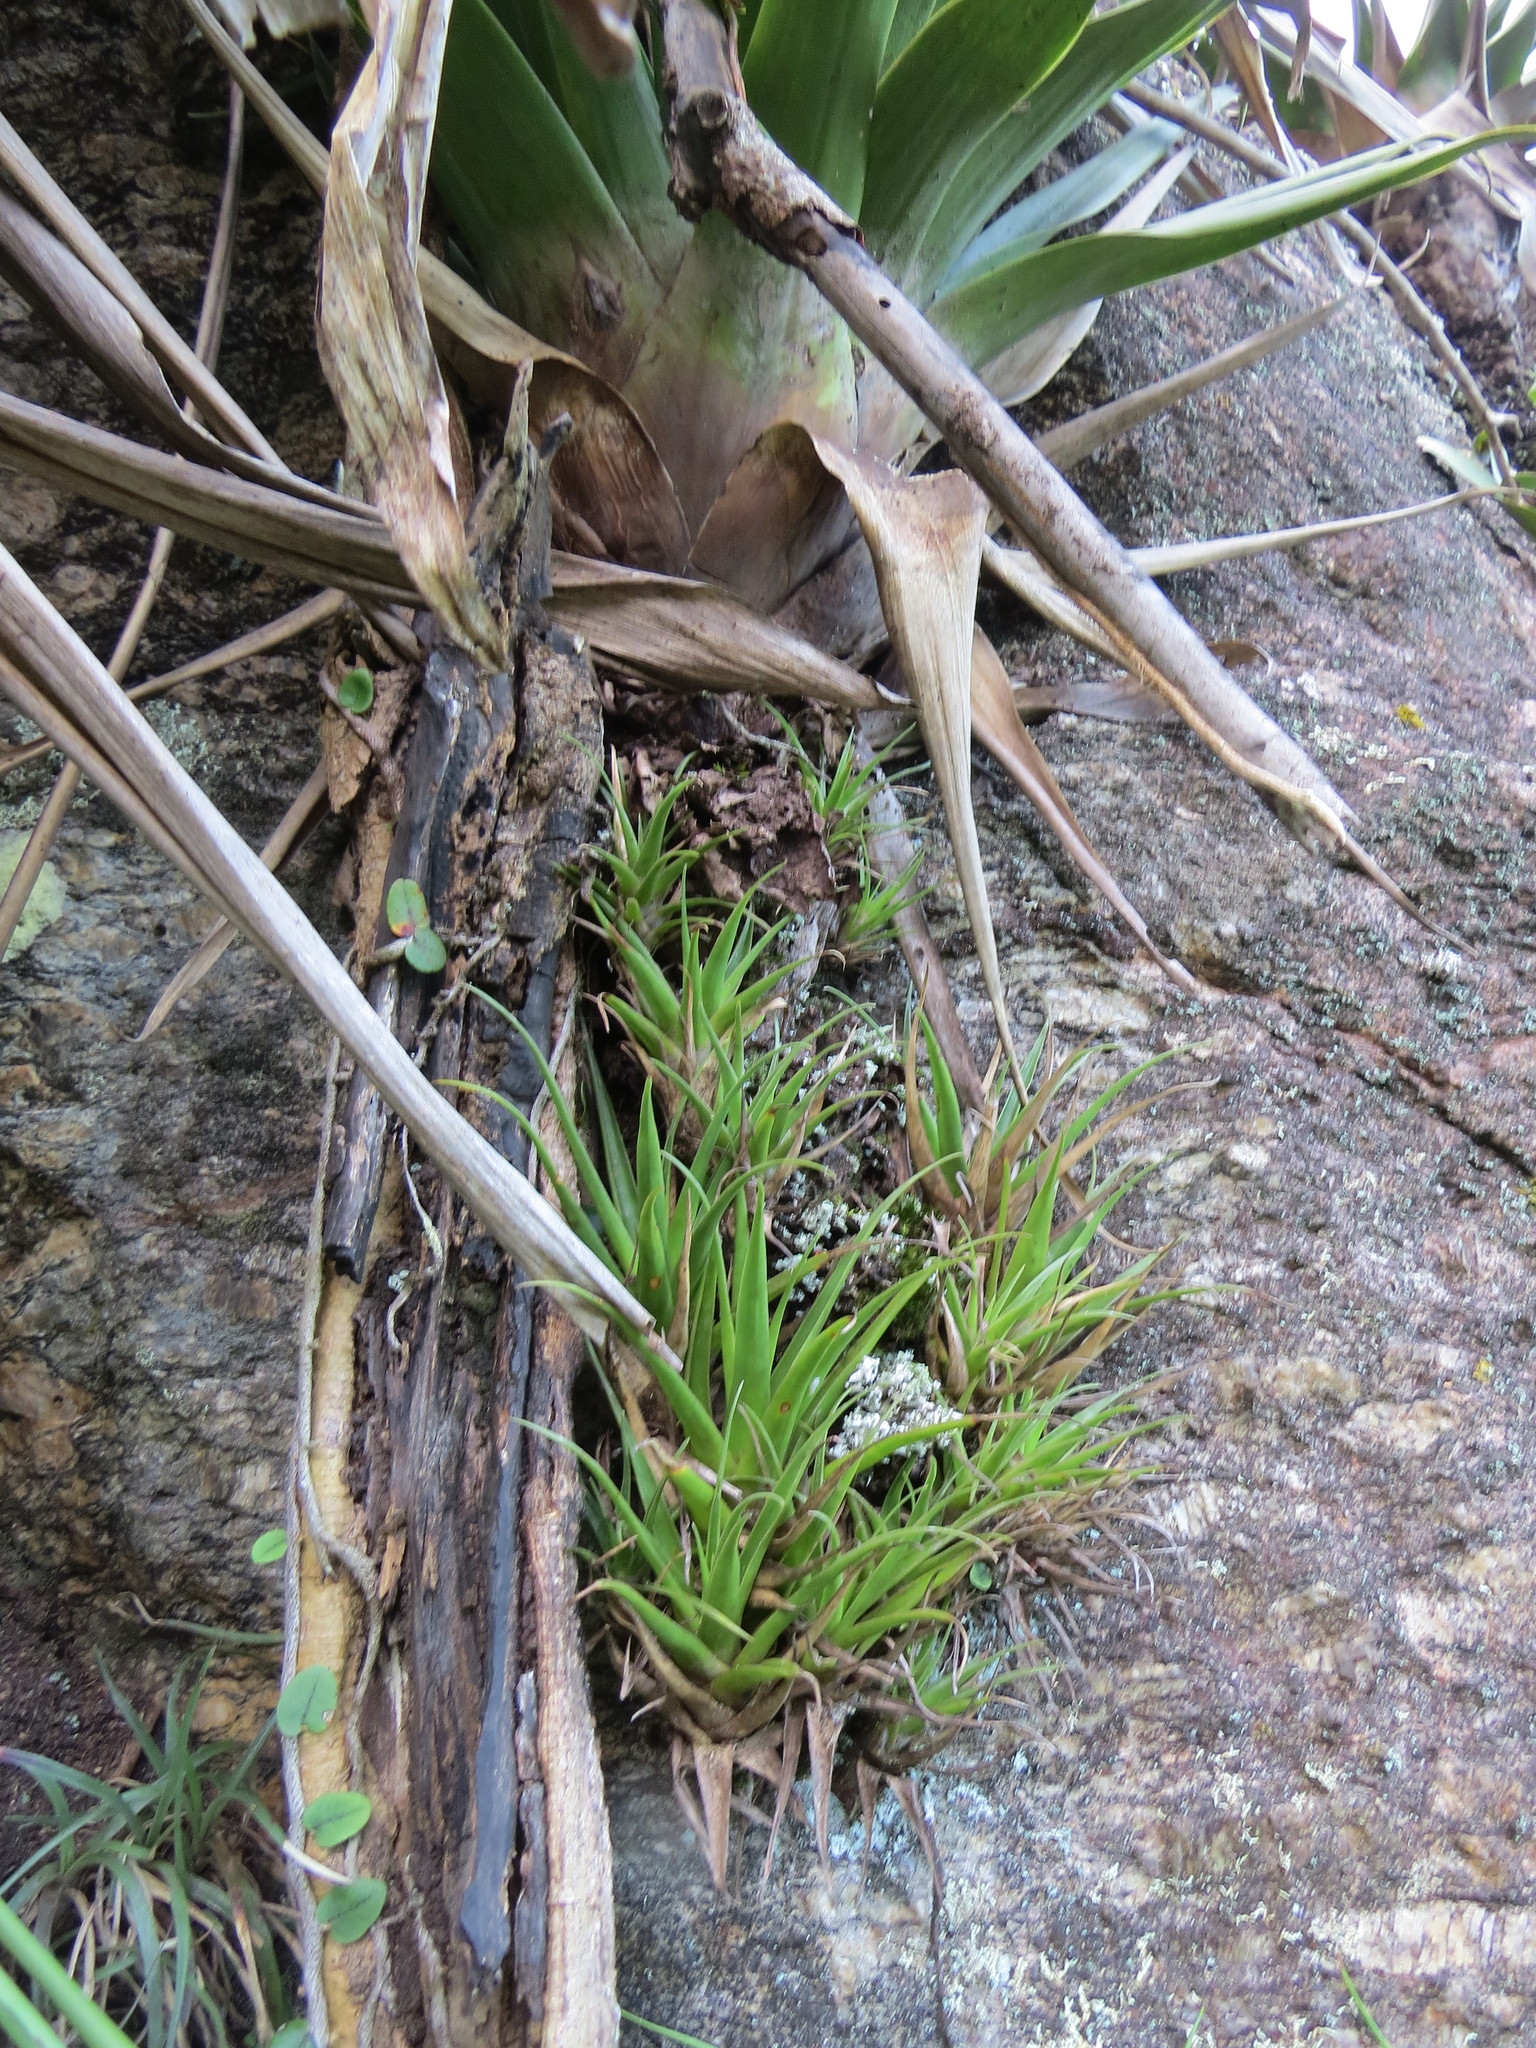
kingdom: Plantae
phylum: Tracheophyta
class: Liliopsida
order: Poales
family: Bromeliaceae
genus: Stigmatodon
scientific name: Stigmatodon goniorachis
